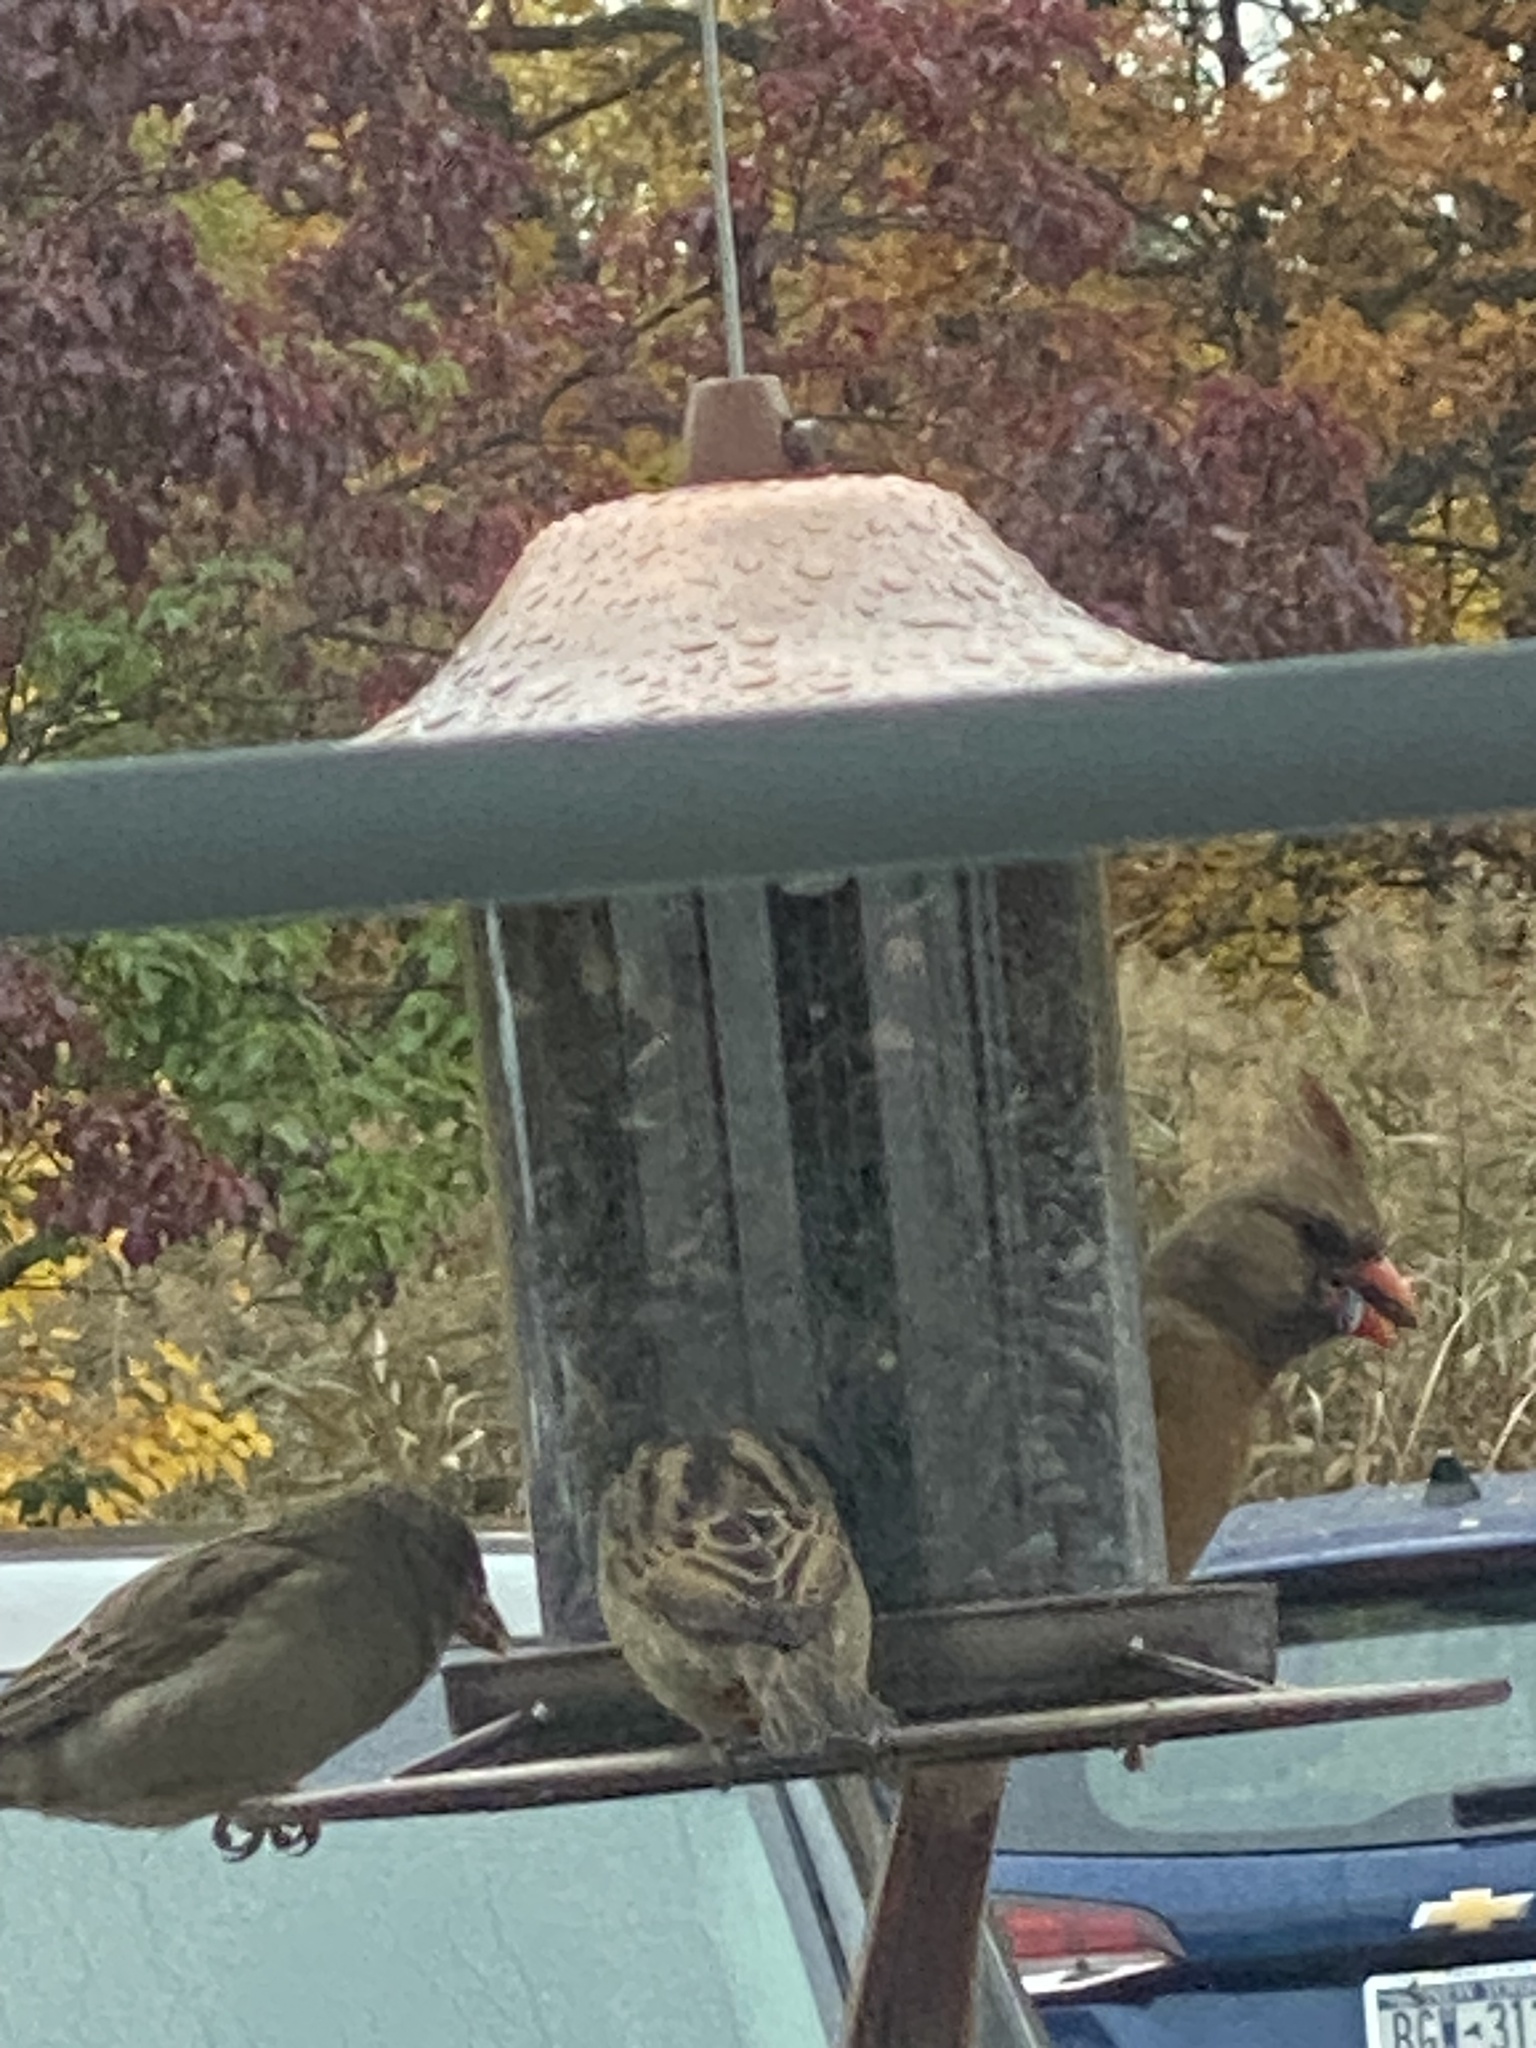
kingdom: Animalia
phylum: Chordata
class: Aves
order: Passeriformes
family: Cardinalidae
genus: Cardinalis
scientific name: Cardinalis cardinalis
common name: Northern cardinal
